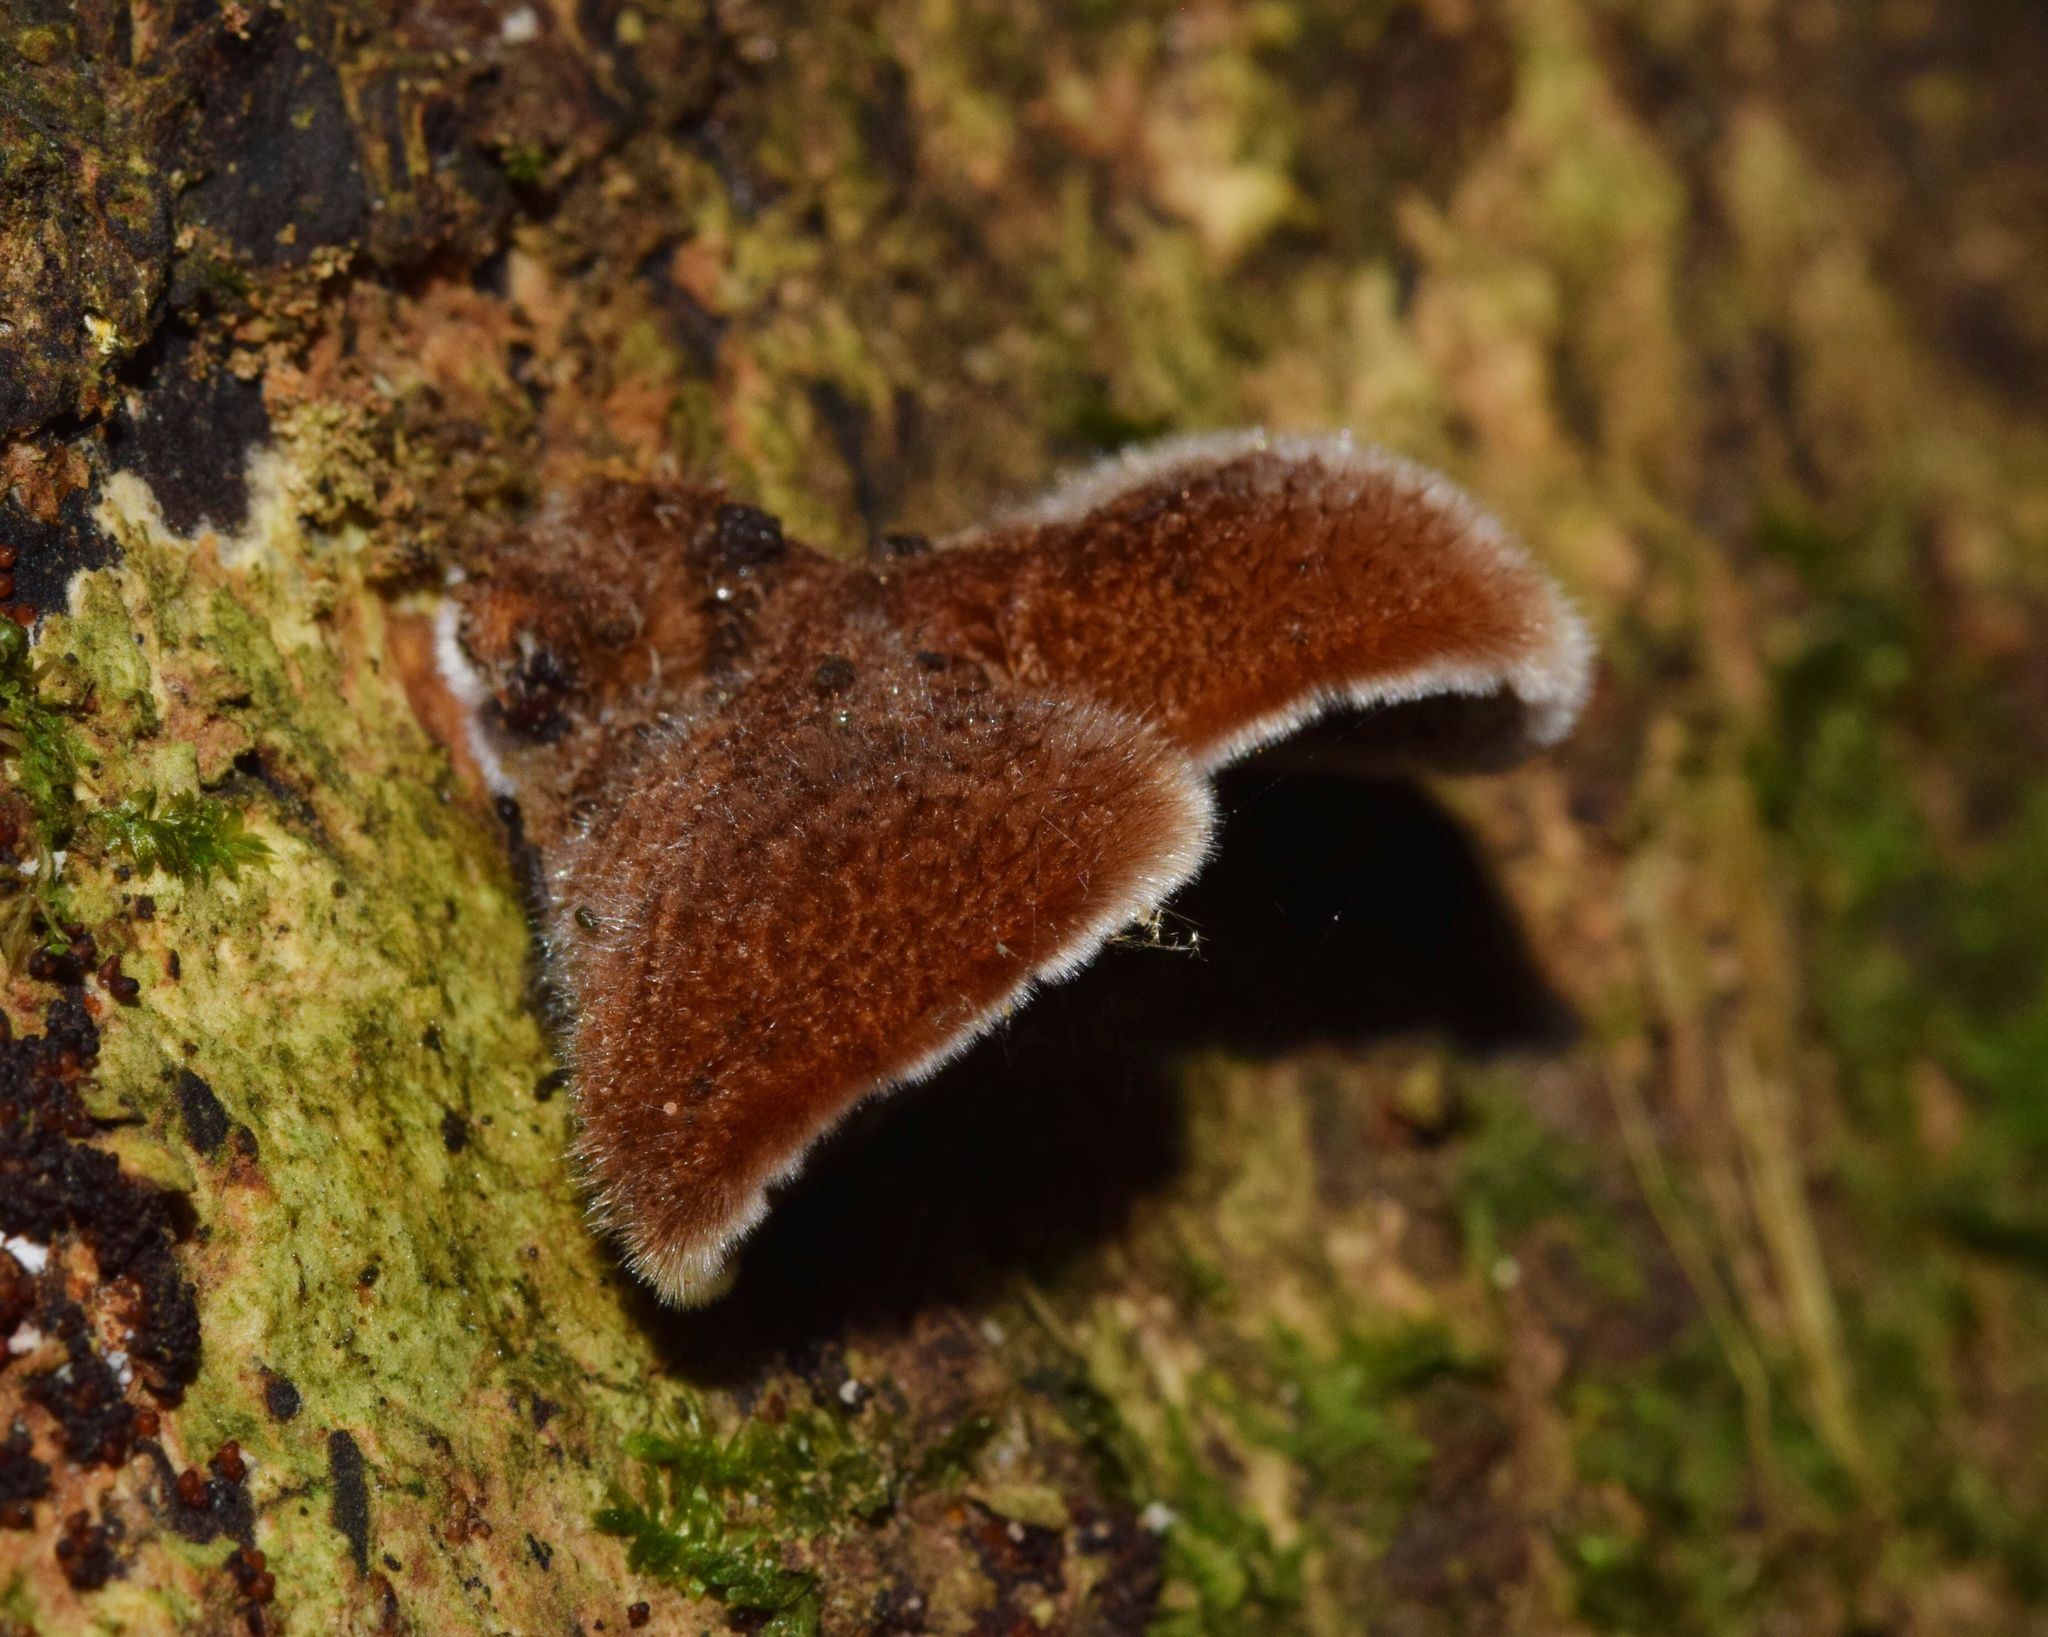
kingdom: Fungi
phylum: Basidiomycota
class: Agaricomycetes
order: Auriculariales
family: Auriculariaceae
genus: Auricularia
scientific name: Auricularia cornea
